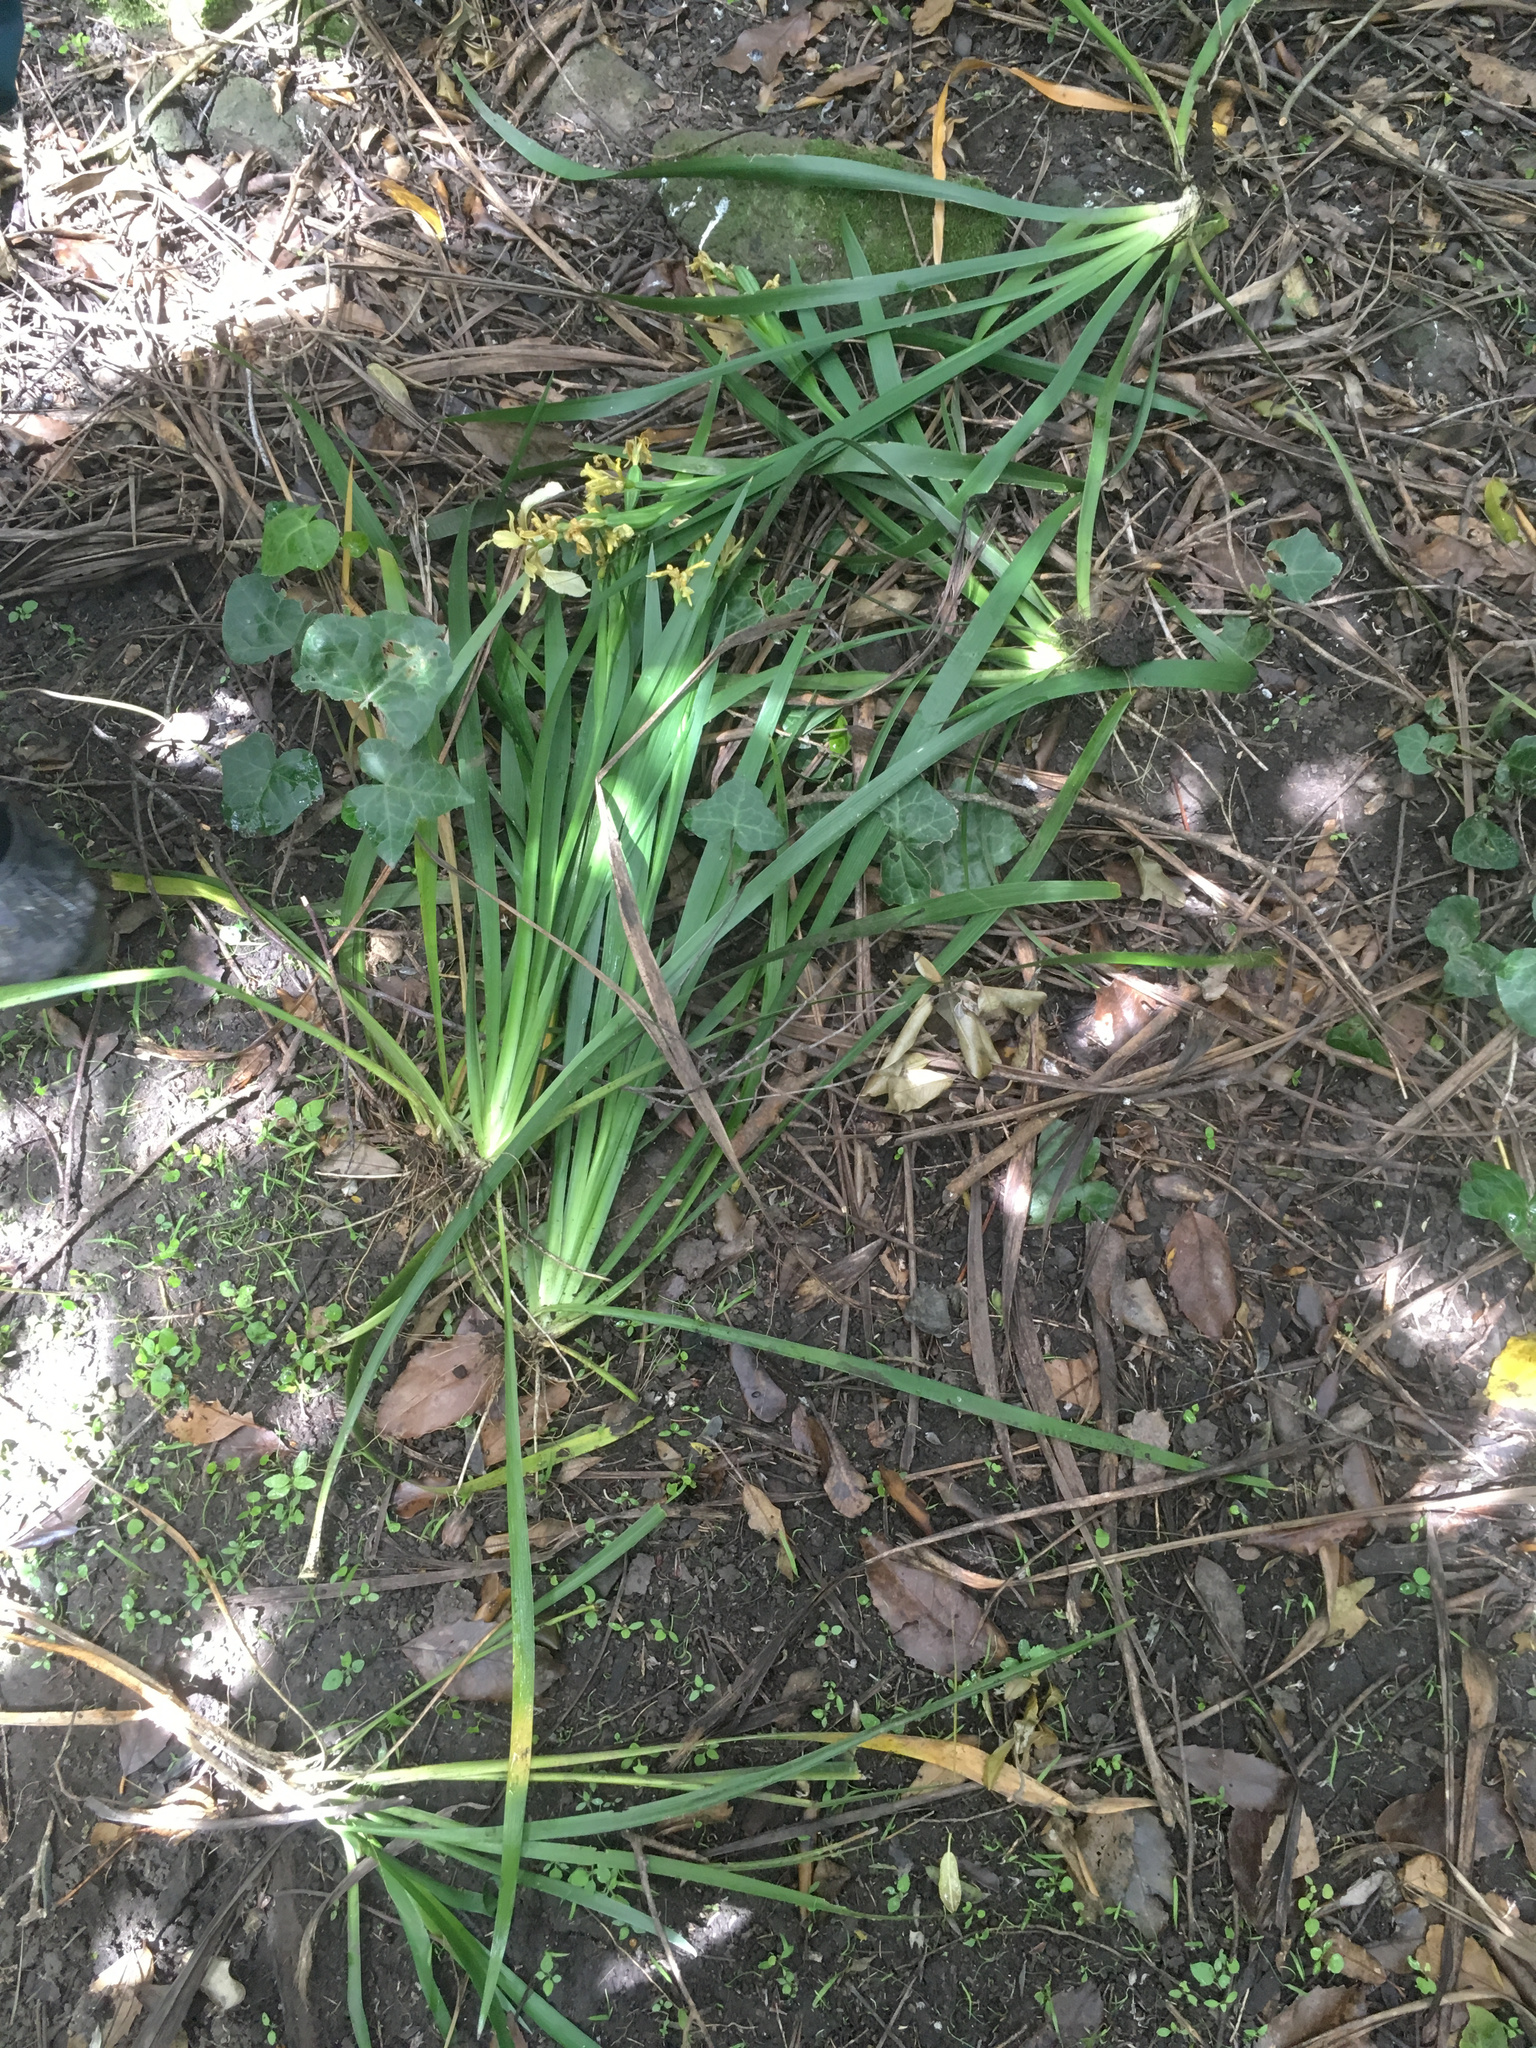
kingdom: Plantae
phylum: Tracheophyta
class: Liliopsida
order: Asparagales
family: Iridaceae
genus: Iris
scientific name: Iris foetidissima
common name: Stinking iris
